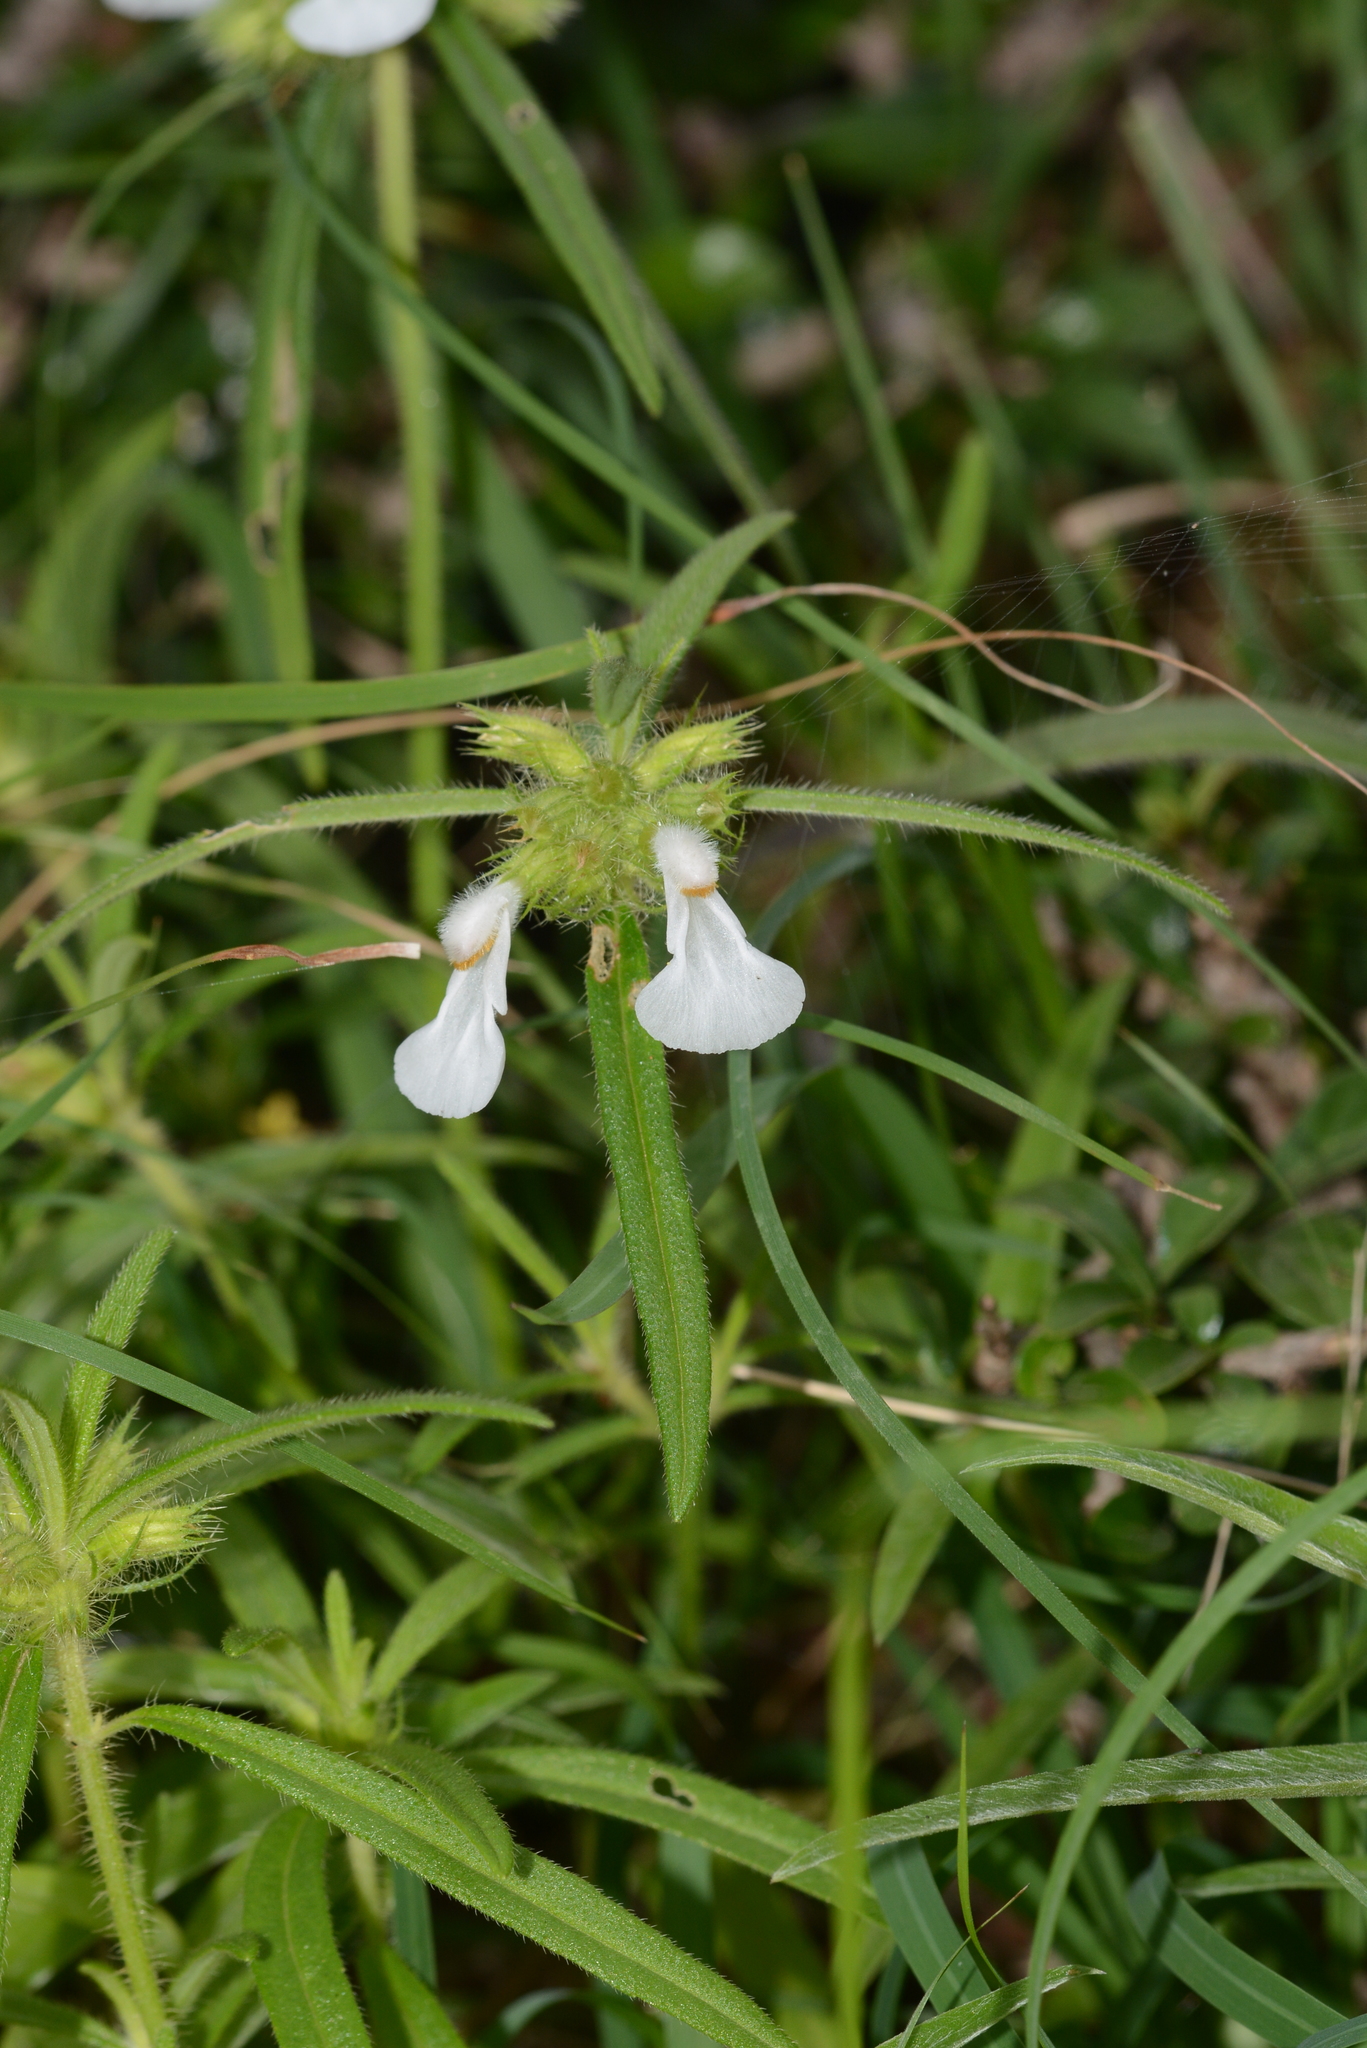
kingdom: Plantae
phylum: Tracheophyta
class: Magnoliopsida
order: Lamiales
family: Lamiaceae
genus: Leucas
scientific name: Leucas stricta
